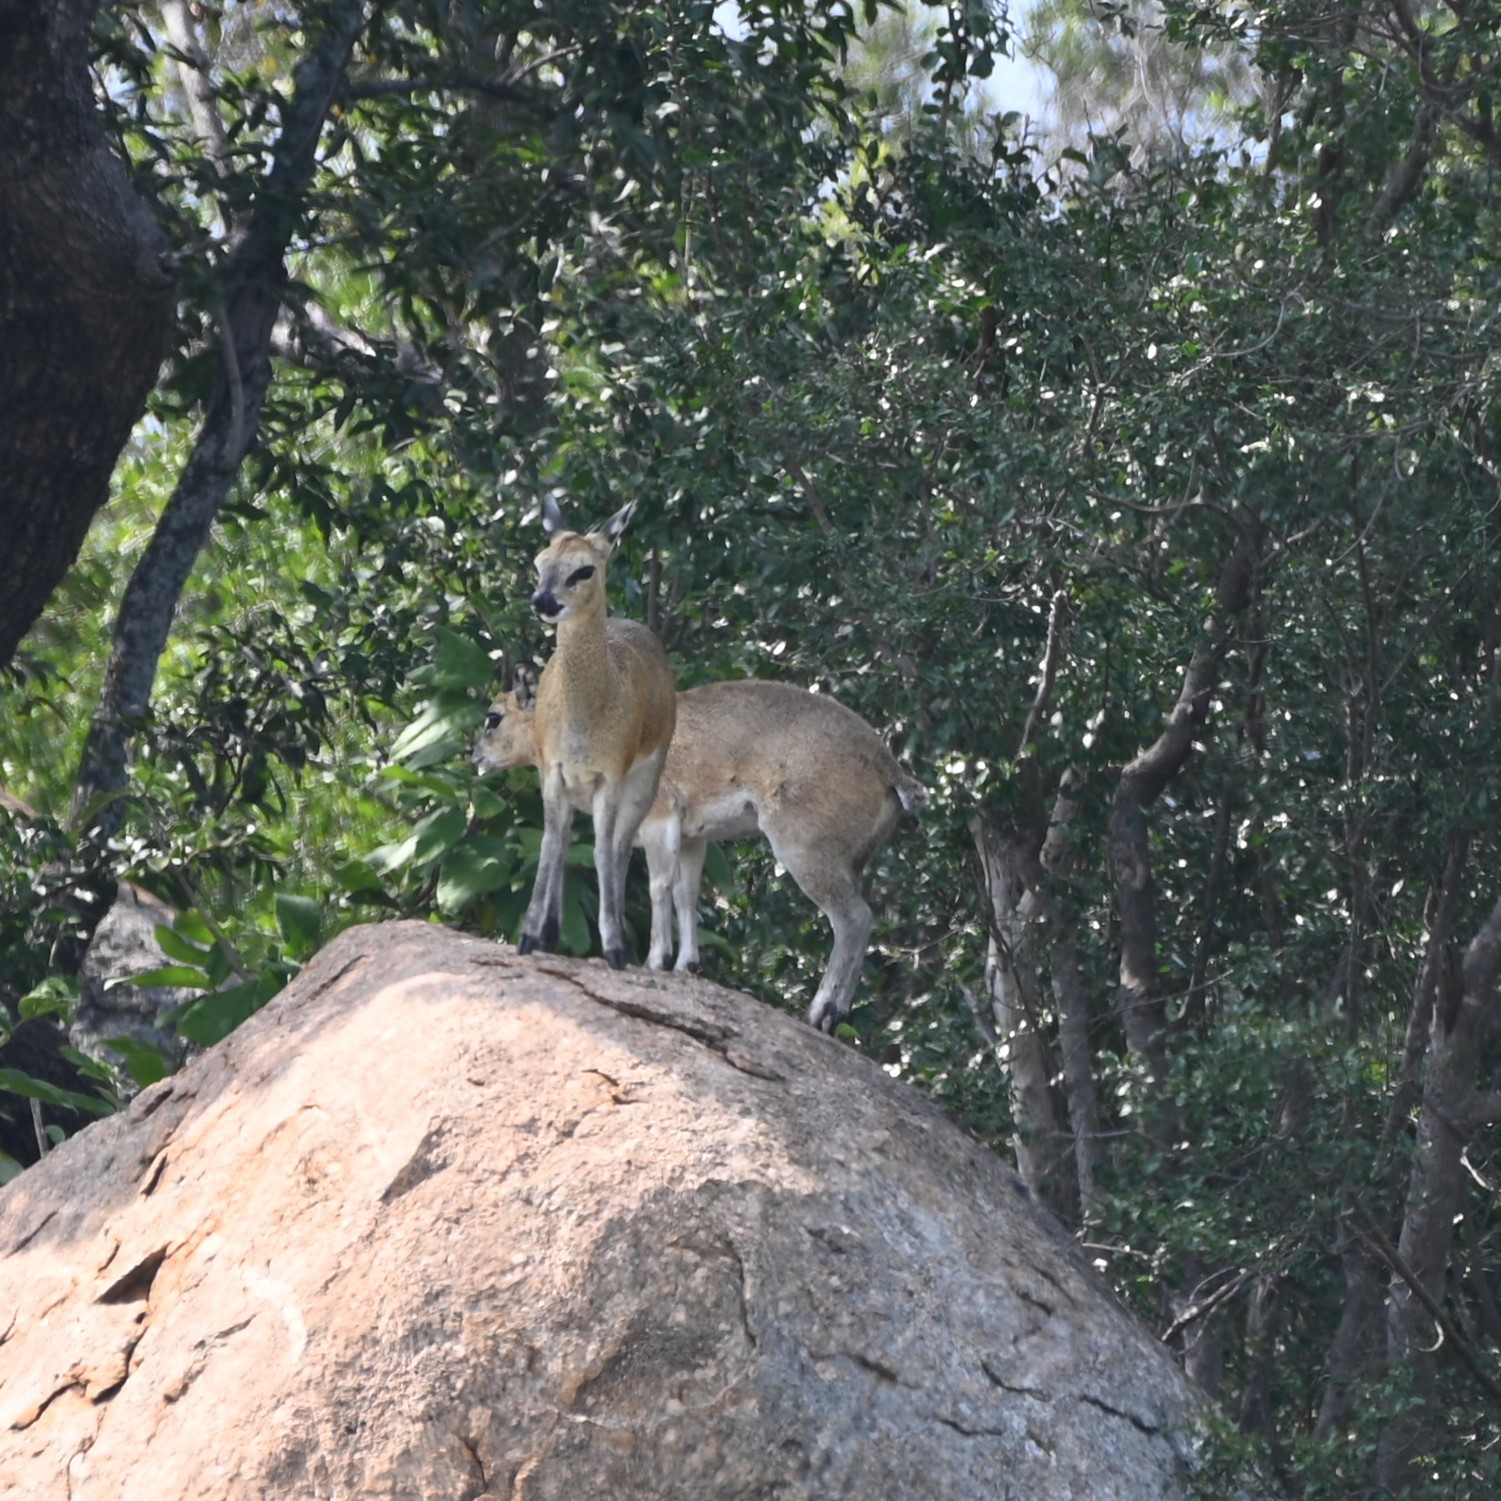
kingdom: Animalia
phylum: Chordata
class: Mammalia
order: Artiodactyla
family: Bovidae
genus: Oreotragus
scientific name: Oreotragus oreotragus
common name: Klipspringer
